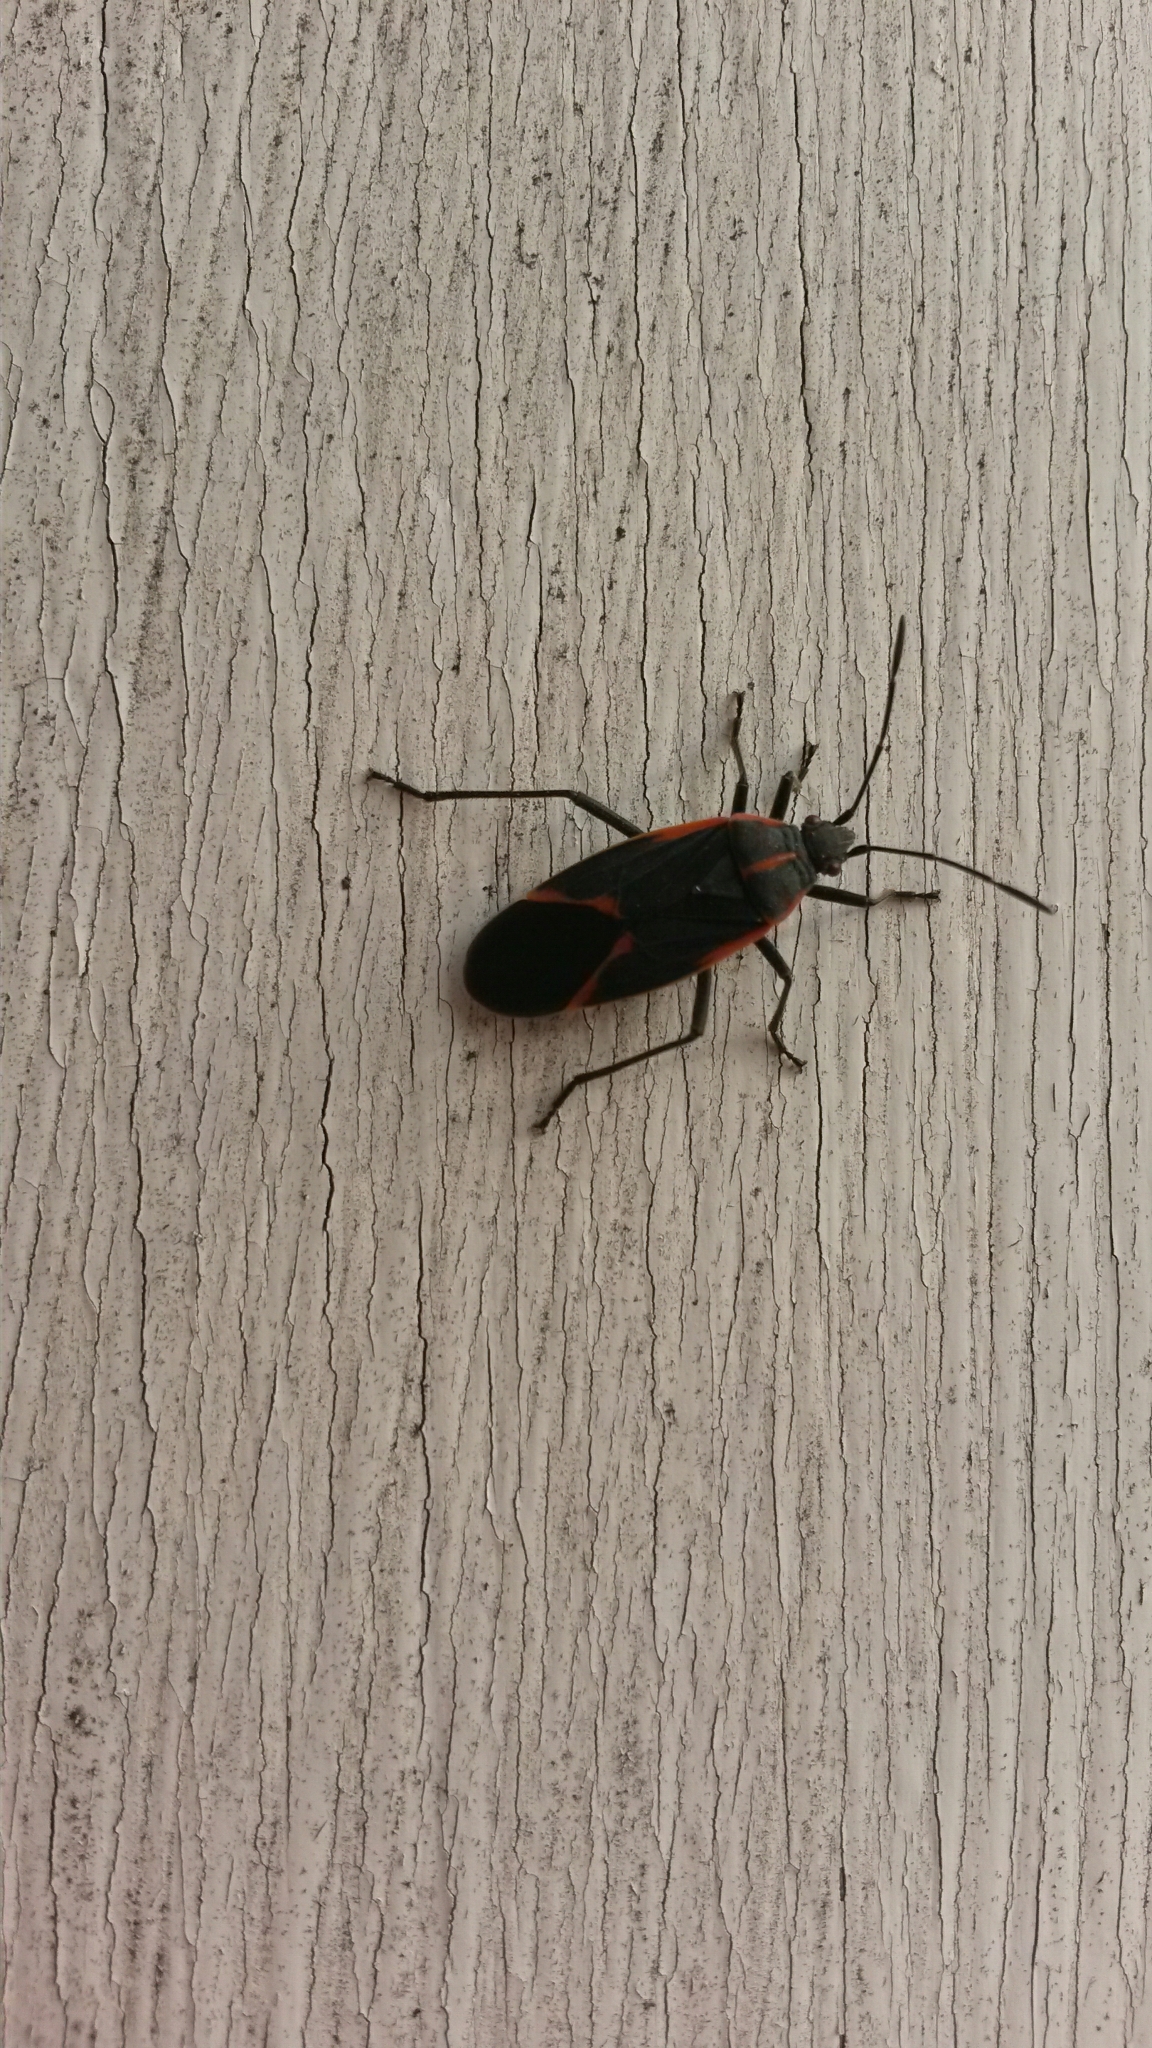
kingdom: Animalia
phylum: Arthropoda
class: Insecta
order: Hemiptera
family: Rhopalidae
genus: Boisea
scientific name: Boisea trivittata
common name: Boxelder bug
